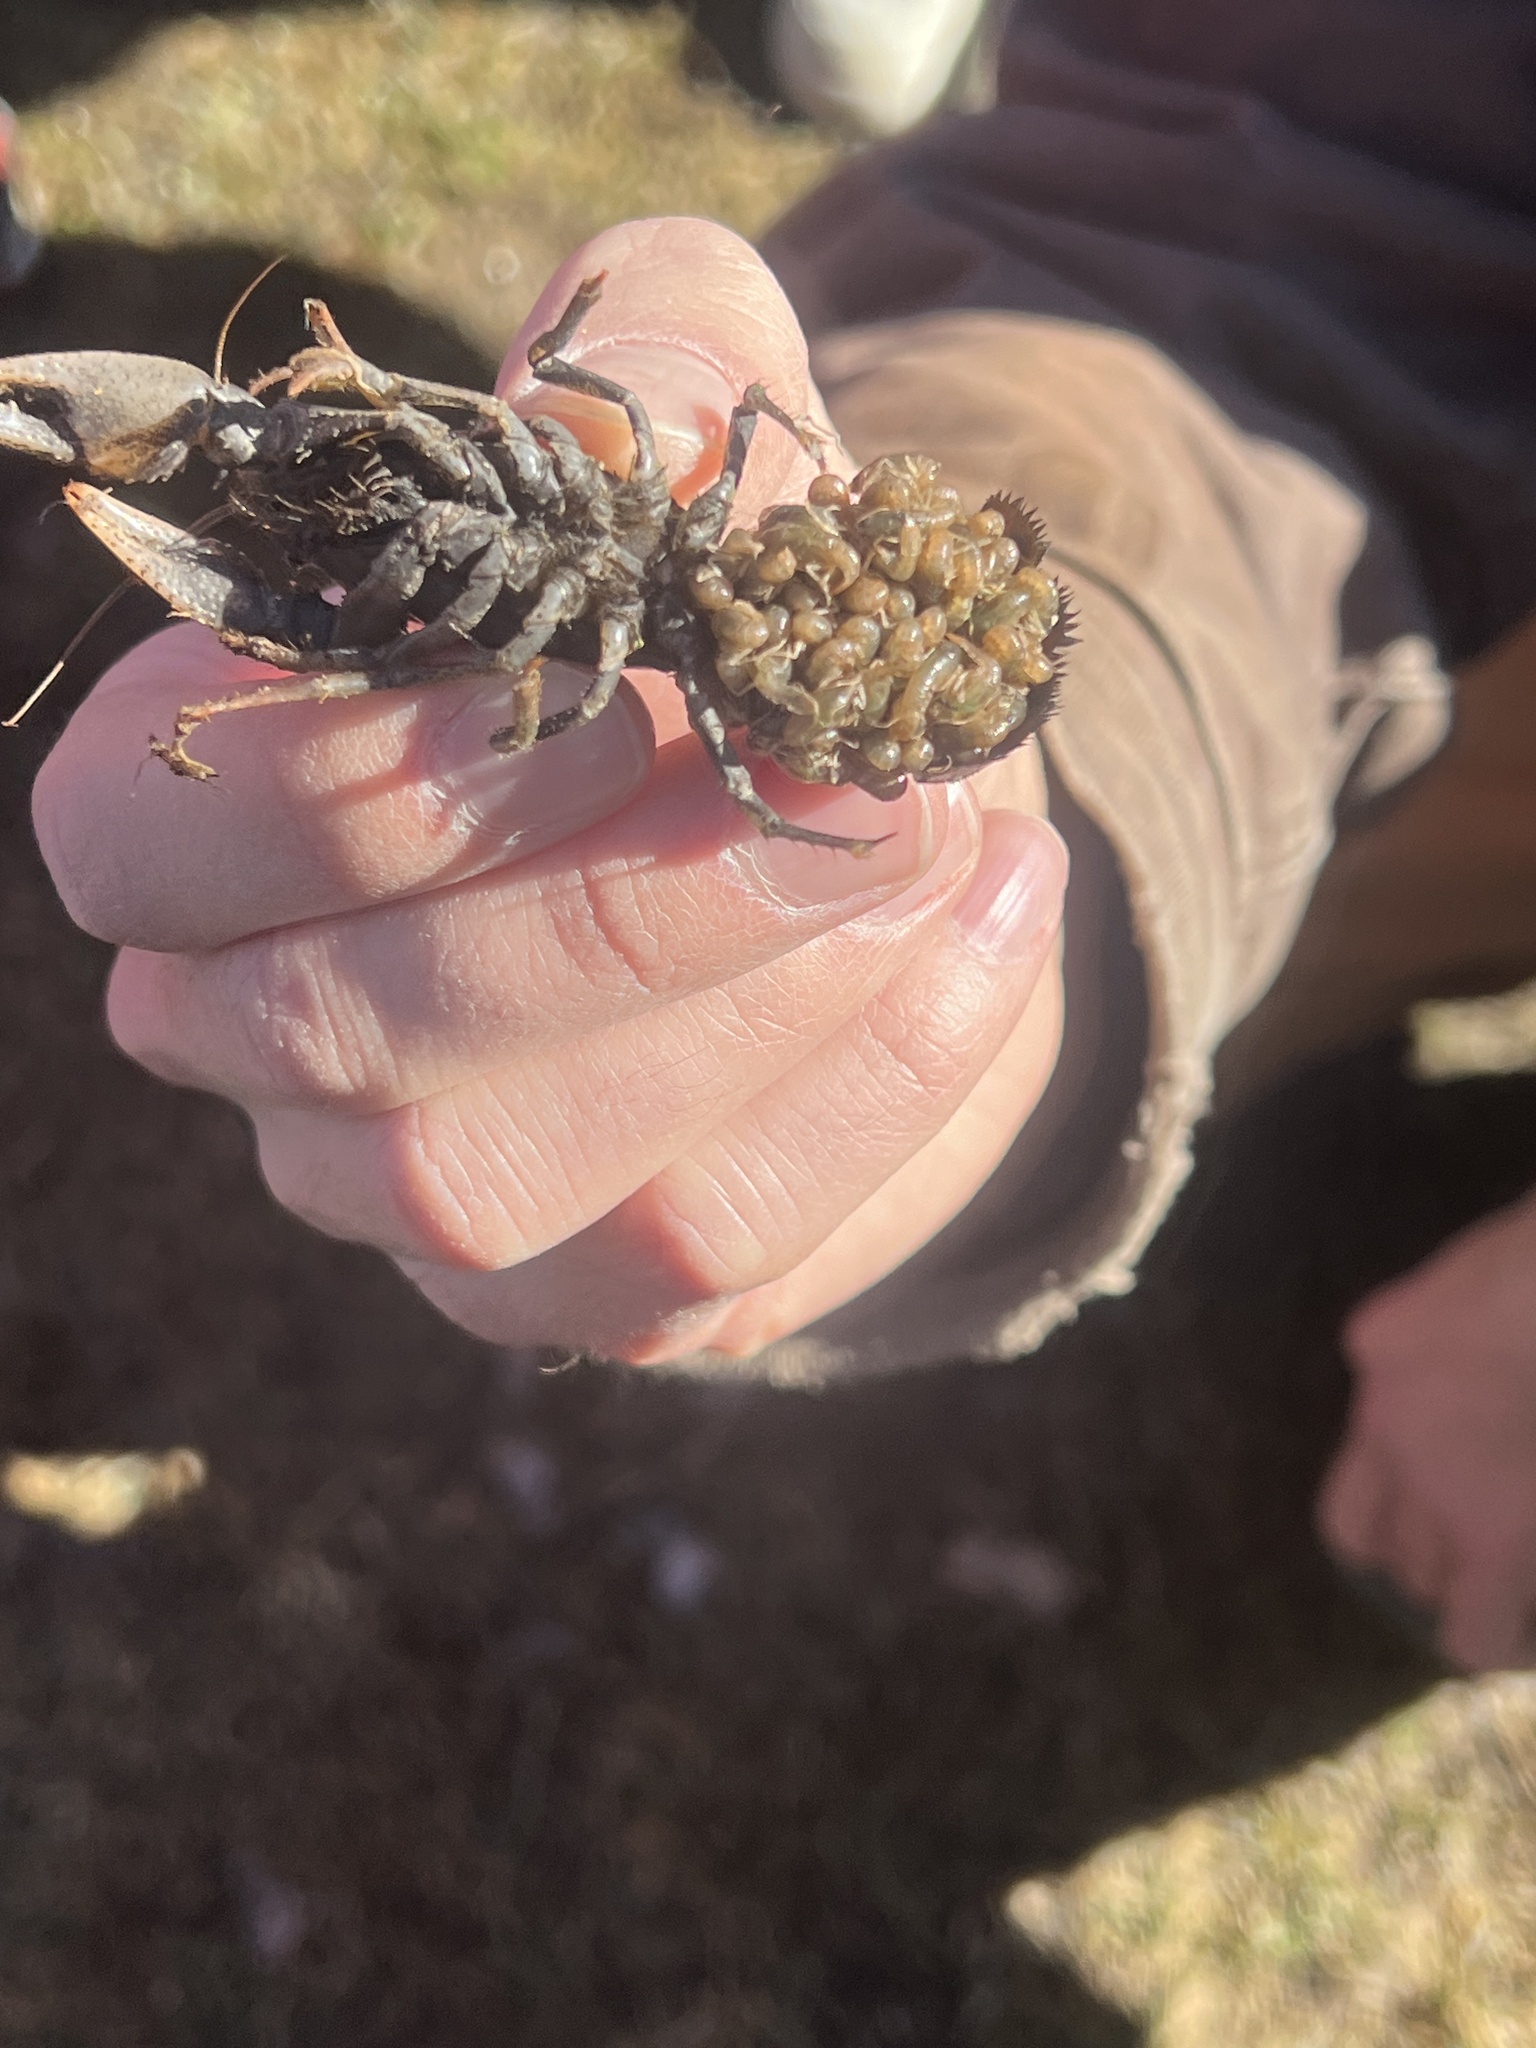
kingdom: Animalia
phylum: Arthropoda
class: Malacostraca
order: Decapoda
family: Cambaridae
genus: Procambarus
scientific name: Procambarus gracilis
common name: Prairie crayfish
